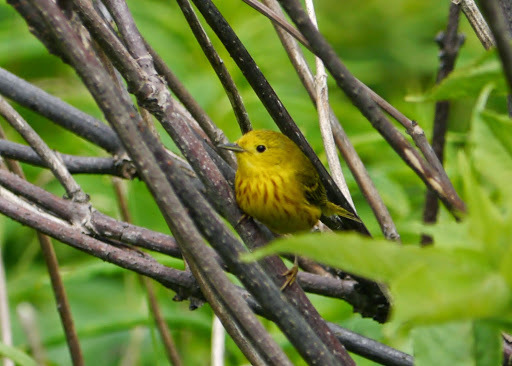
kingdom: Animalia
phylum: Chordata
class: Aves
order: Passeriformes
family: Parulidae
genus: Setophaga
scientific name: Setophaga petechia
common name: Yellow warbler
